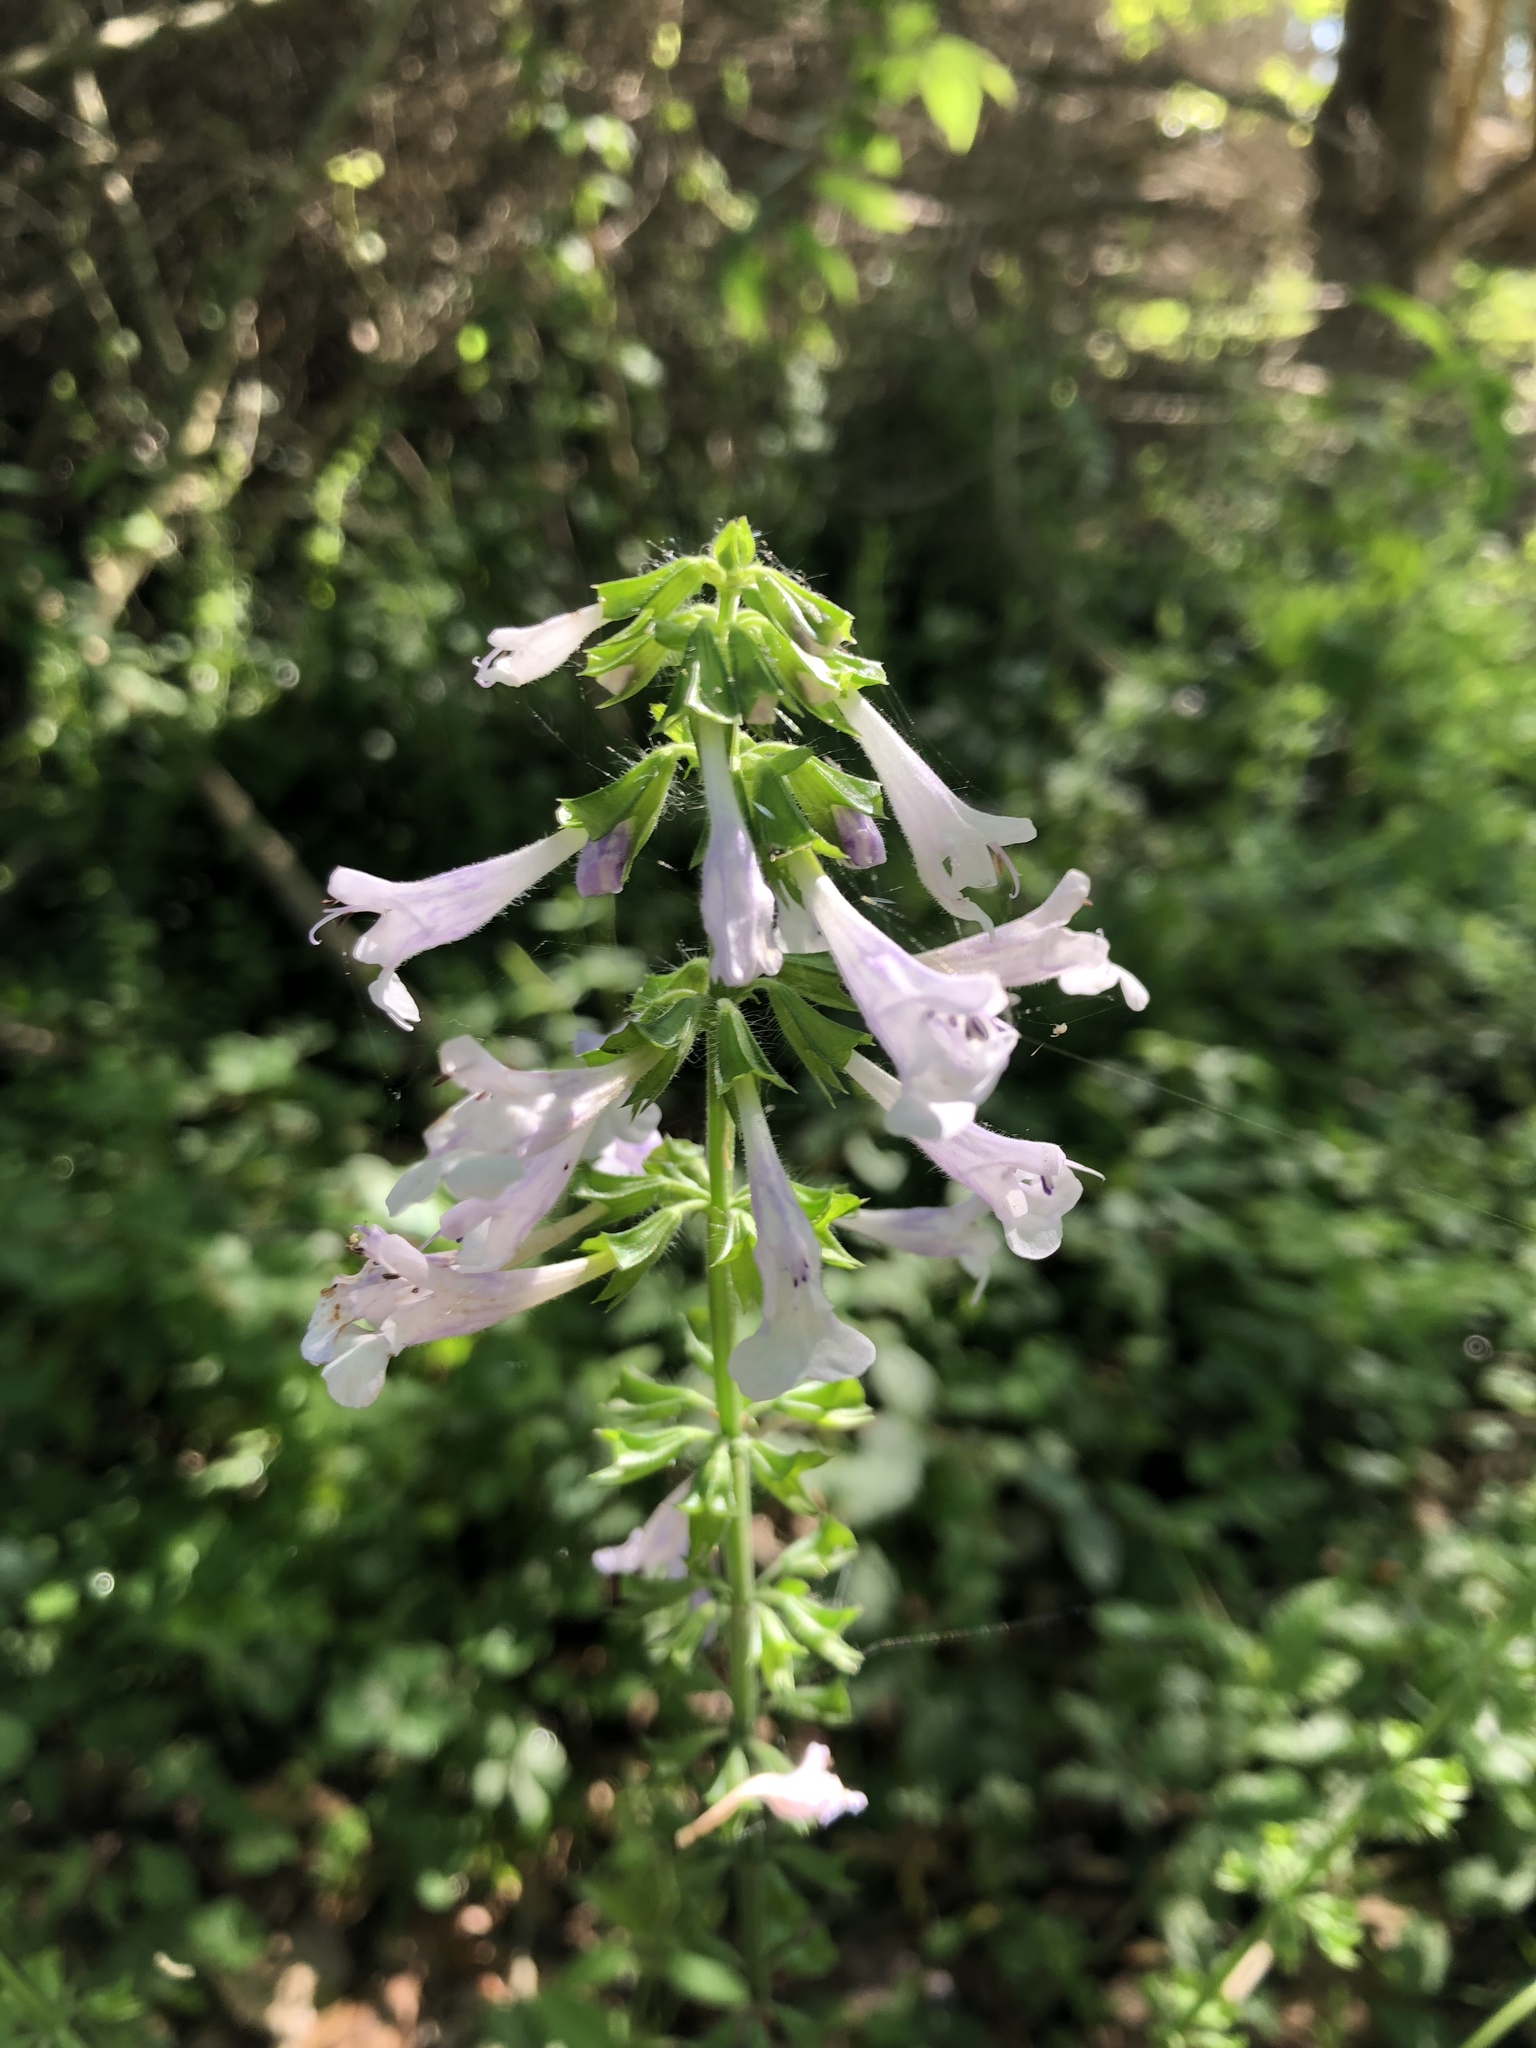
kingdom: Plantae
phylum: Tracheophyta
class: Magnoliopsida
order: Lamiales
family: Lamiaceae
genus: Salvia
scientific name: Salvia lyrata
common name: Cancerweed
